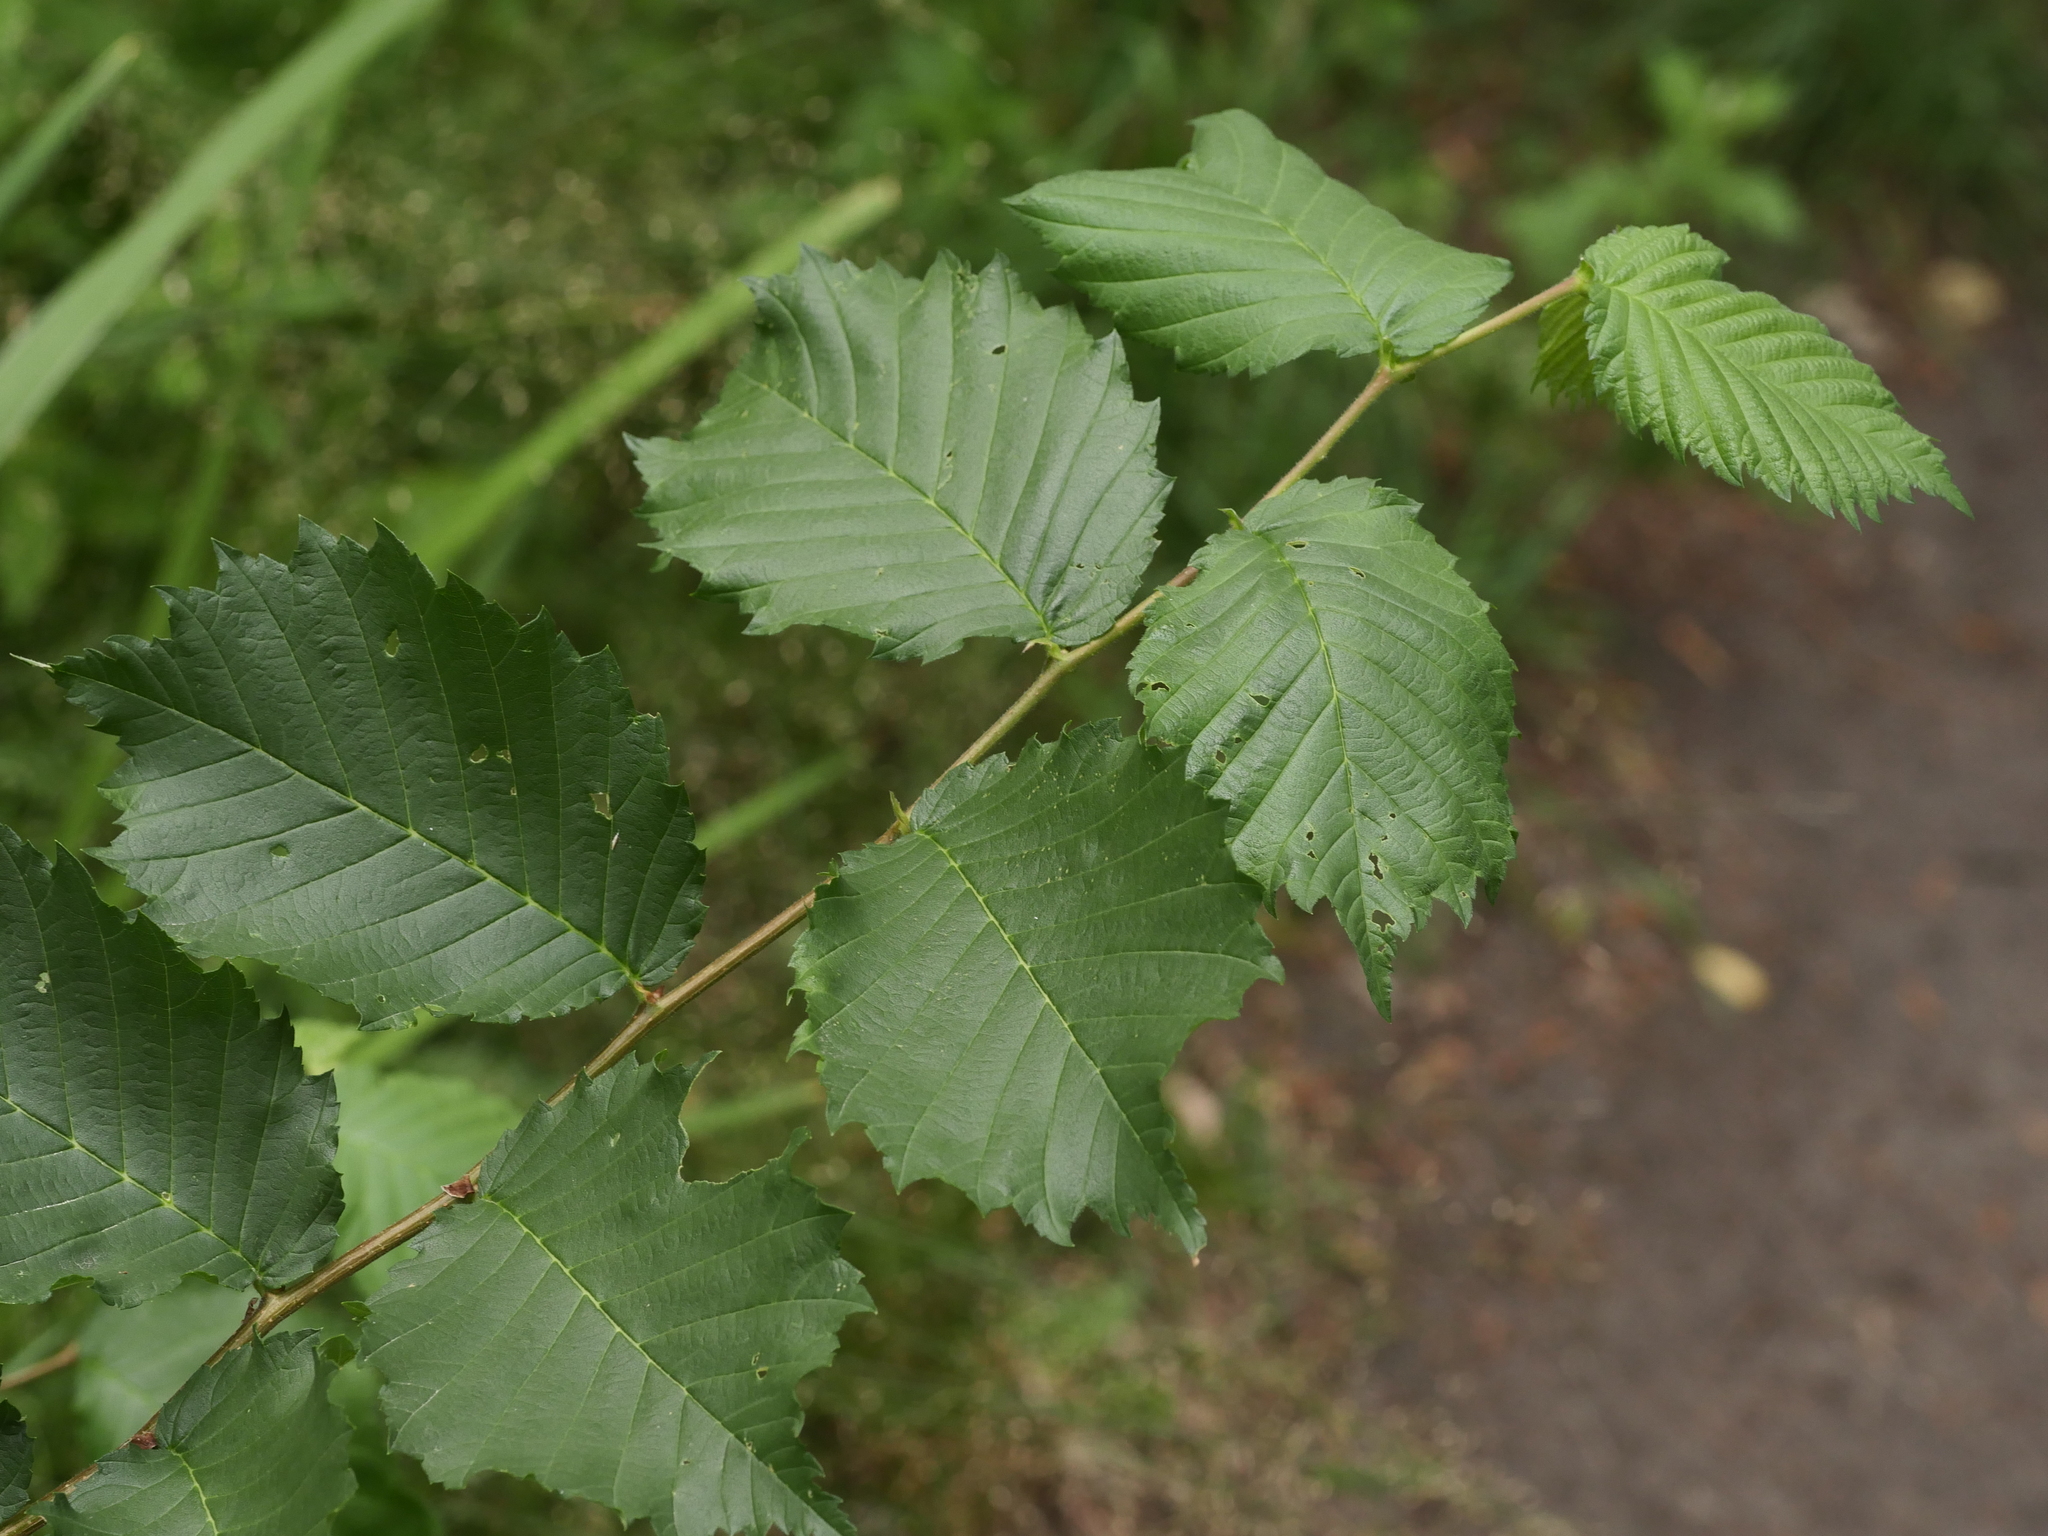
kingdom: Plantae
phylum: Tracheophyta
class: Magnoliopsida
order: Rosales
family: Ulmaceae
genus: Ulmus
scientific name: Ulmus glabra
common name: Wych elm
